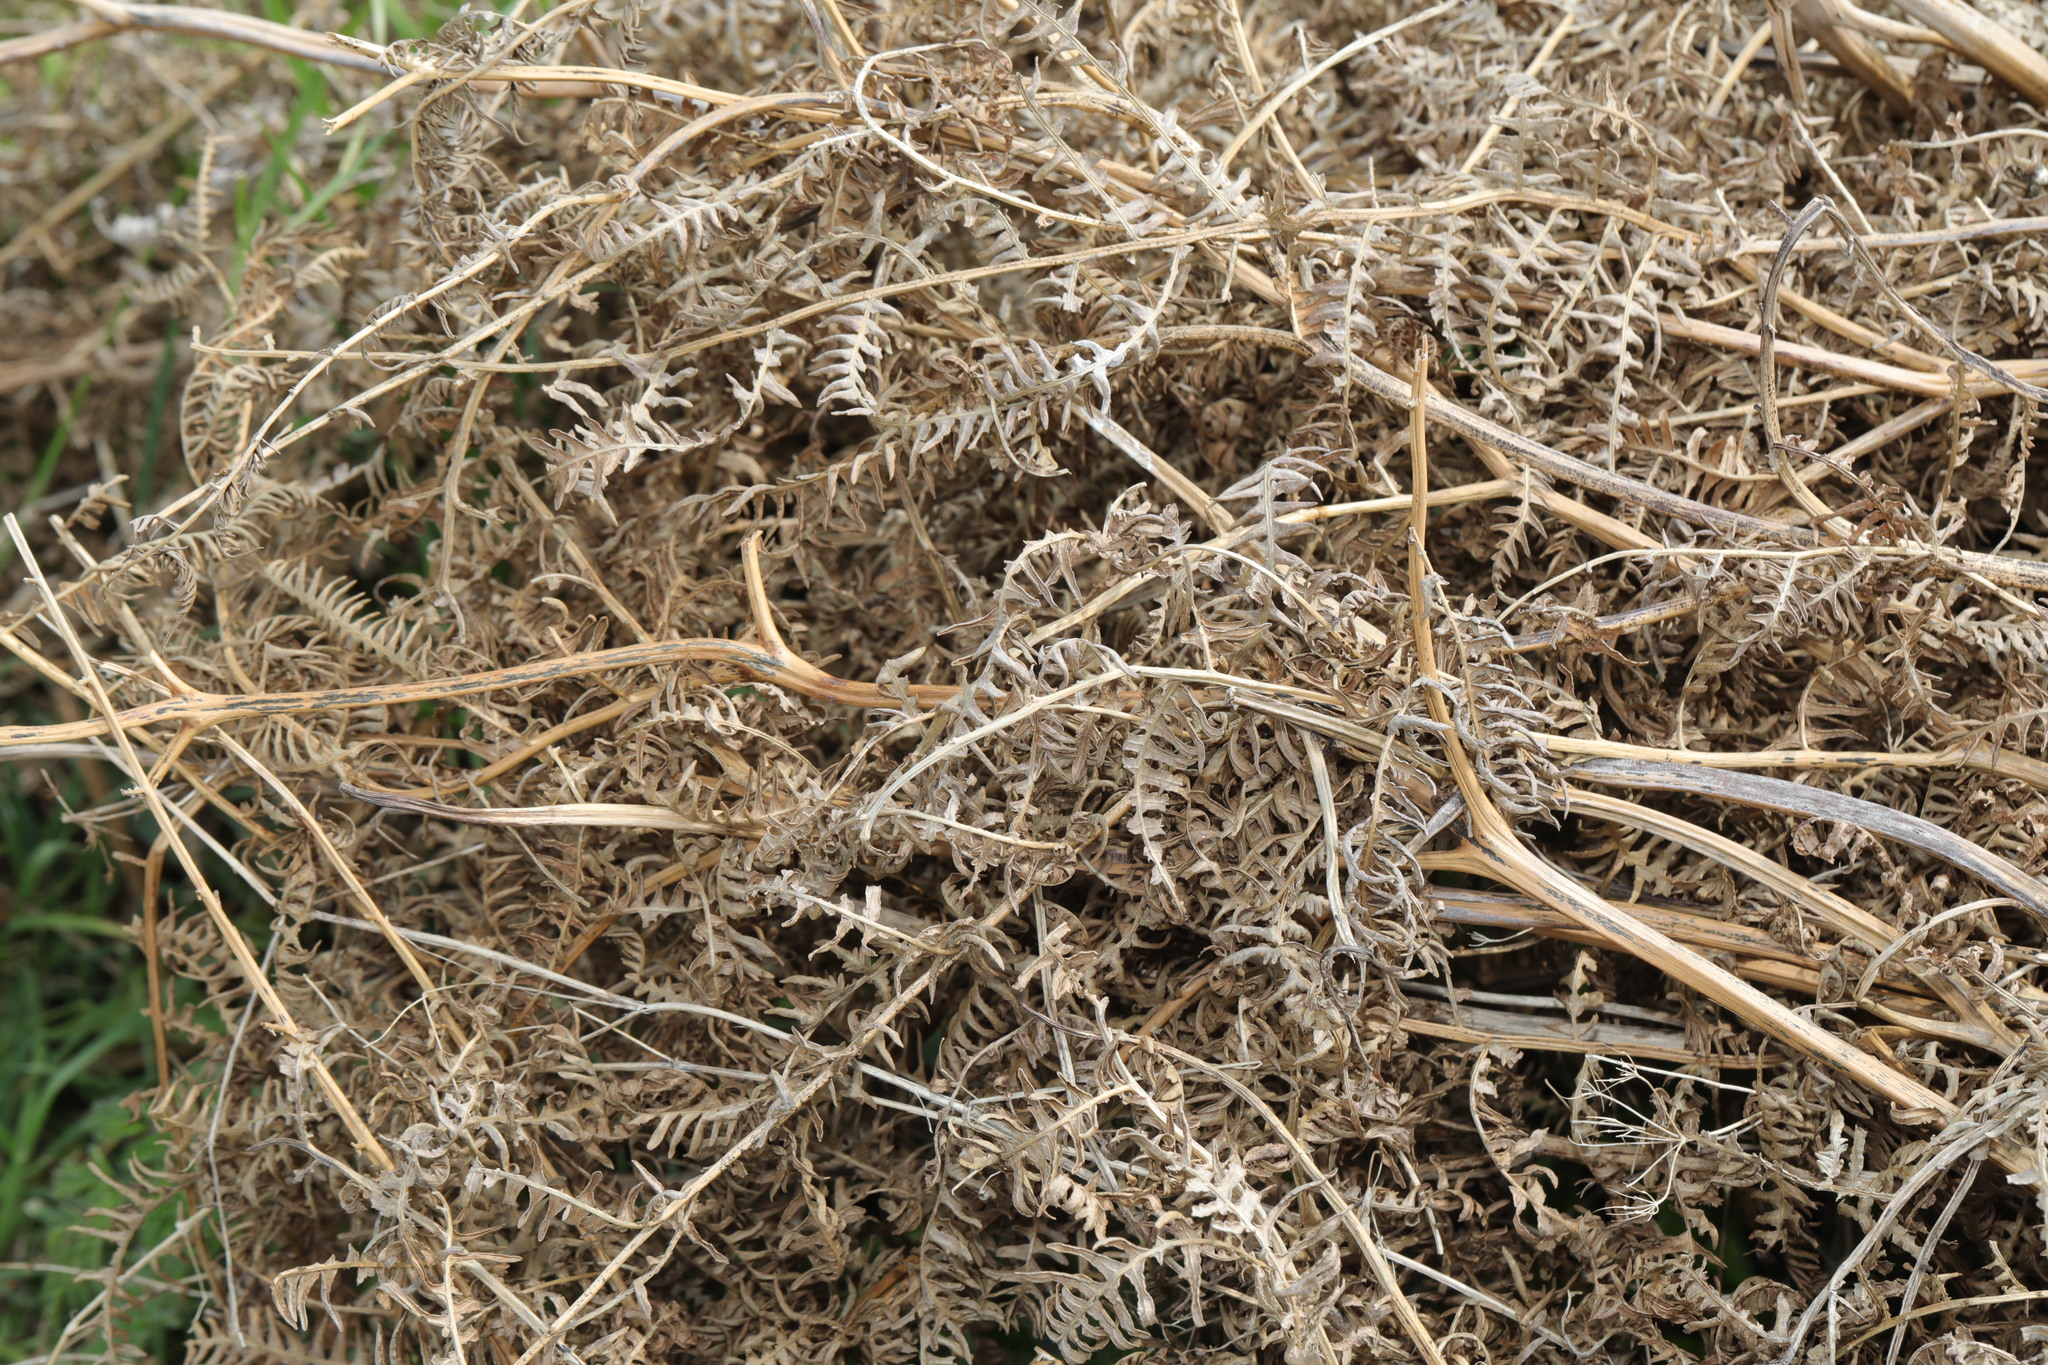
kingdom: Plantae
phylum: Tracheophyta
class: Polypodiopsida
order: Polypodiales
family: Dennstaedtiaceae
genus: Pteridium
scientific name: Pteridium aquilinum
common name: Bracken
